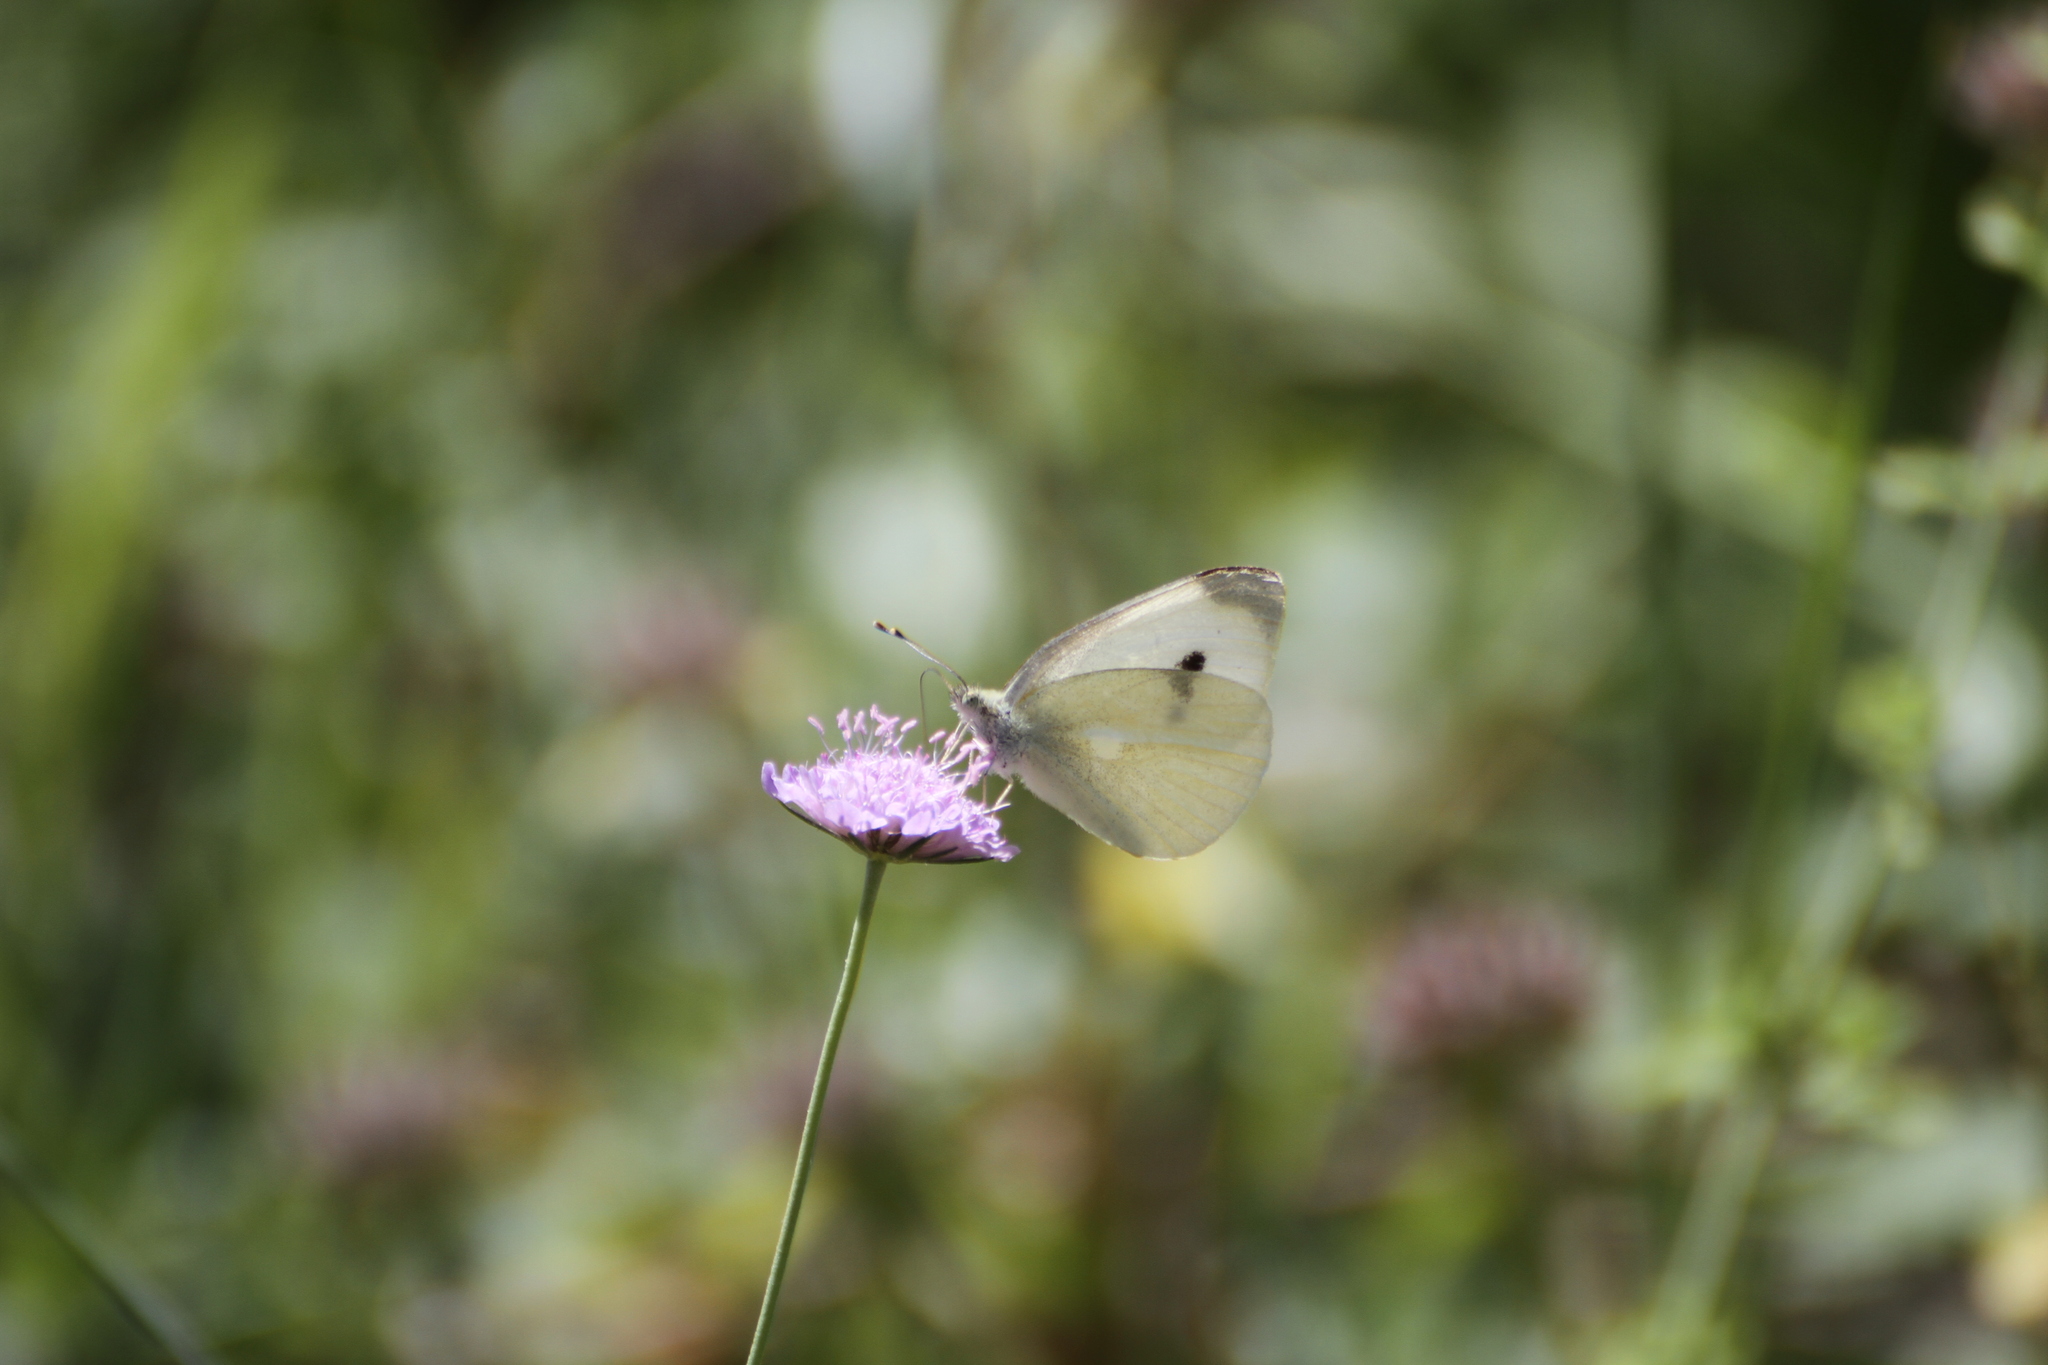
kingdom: Animalia
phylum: Arthropoda
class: Insecta
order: Lepidoptera
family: Pieridae
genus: Pieris
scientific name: Pieris brassicae
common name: Large white
